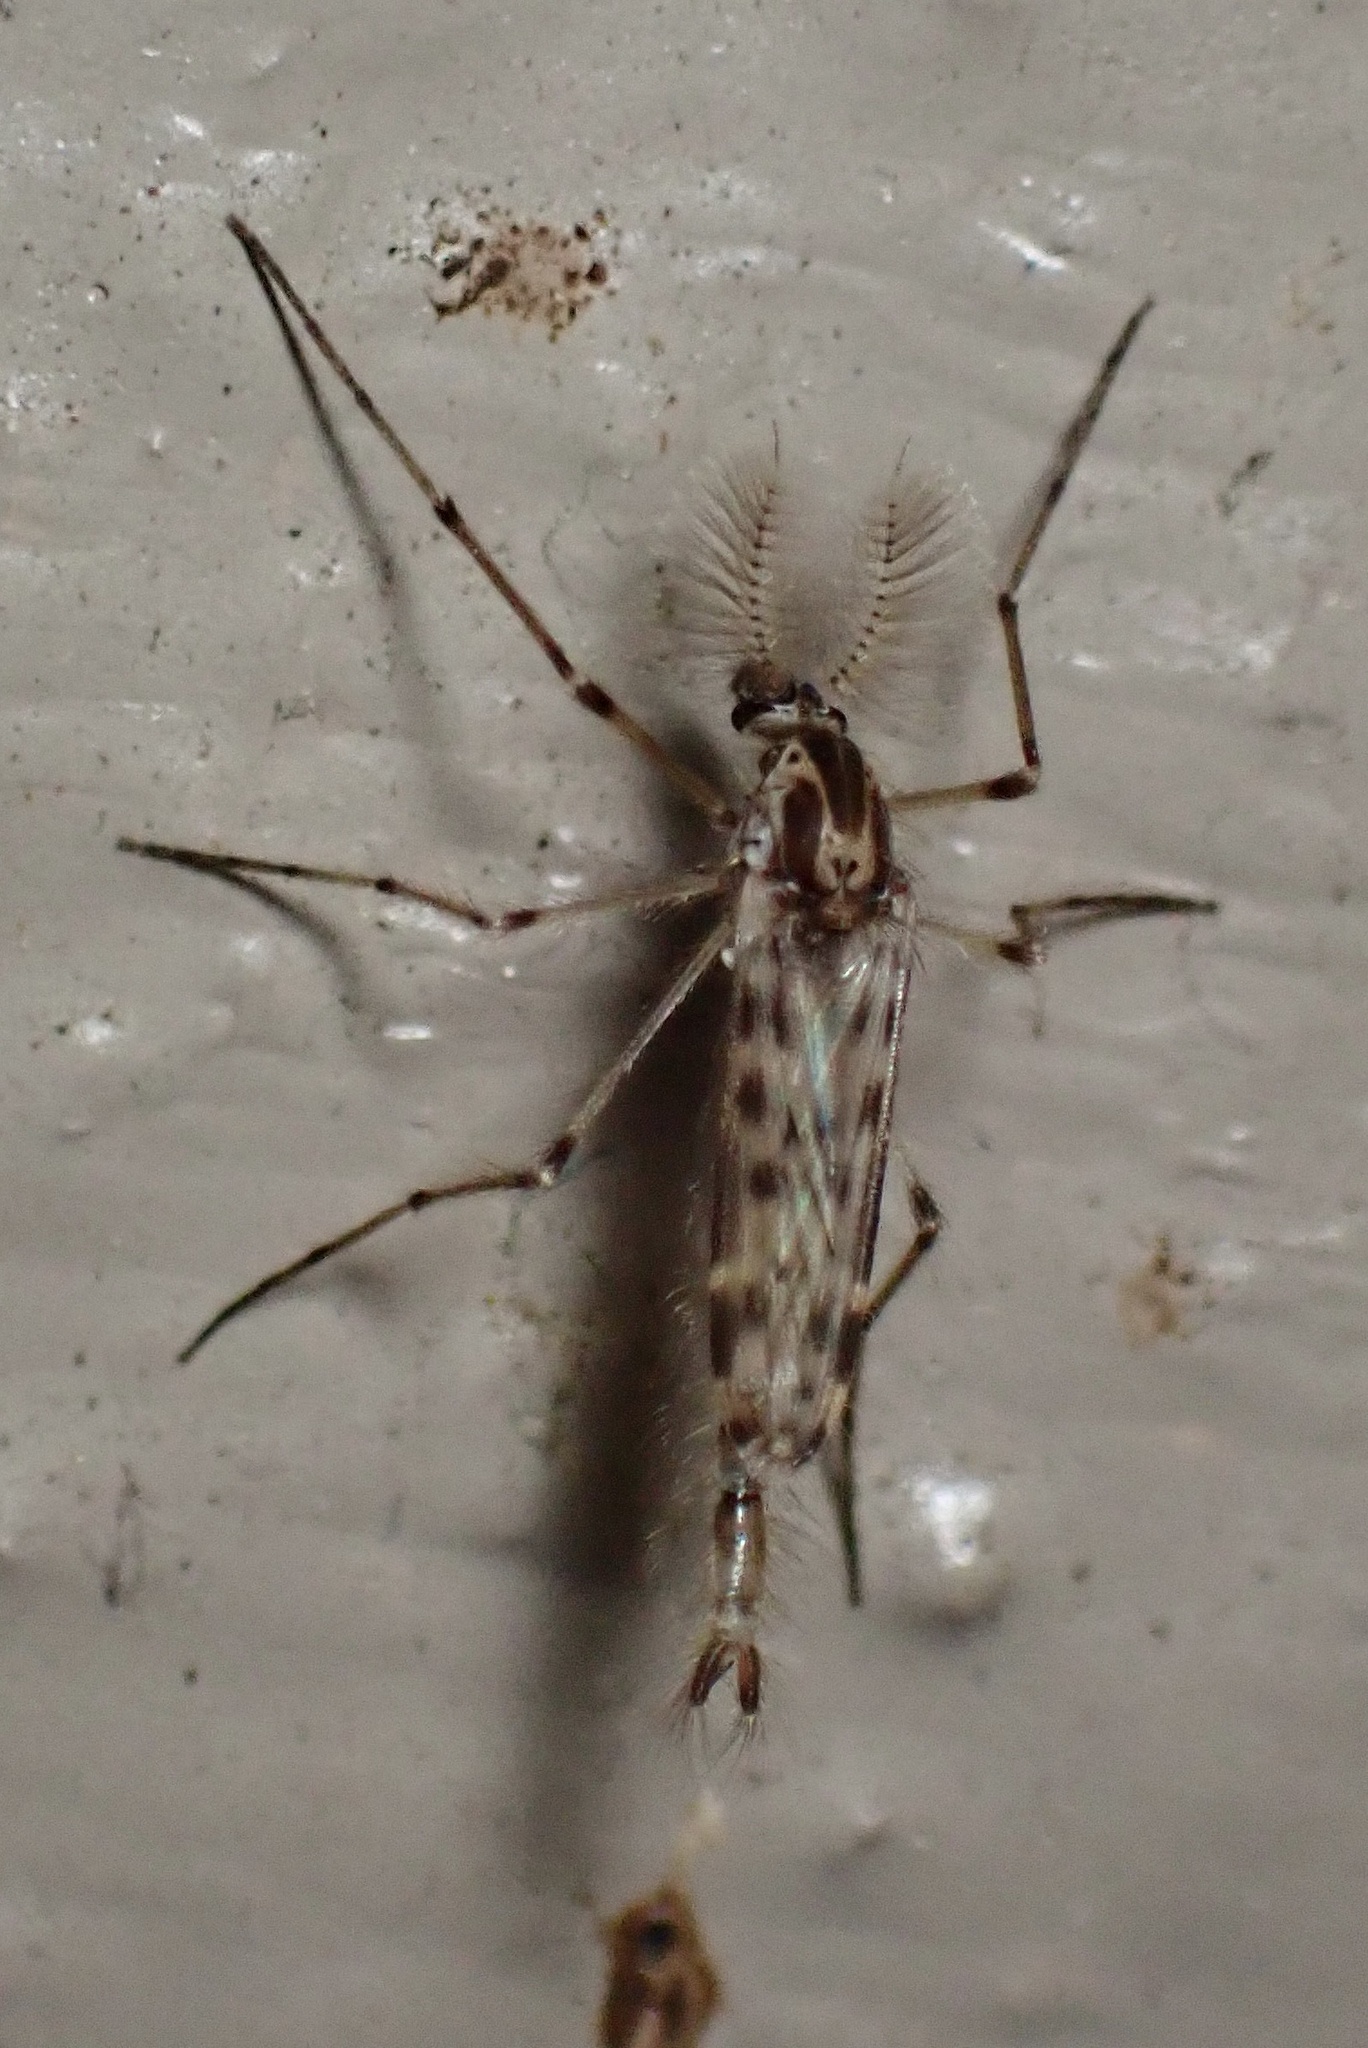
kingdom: Animalia
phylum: Arthropoda
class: Insecta
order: Diptera
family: Chaoboridae
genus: Chaoborus
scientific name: Chaoborus trivittatus
